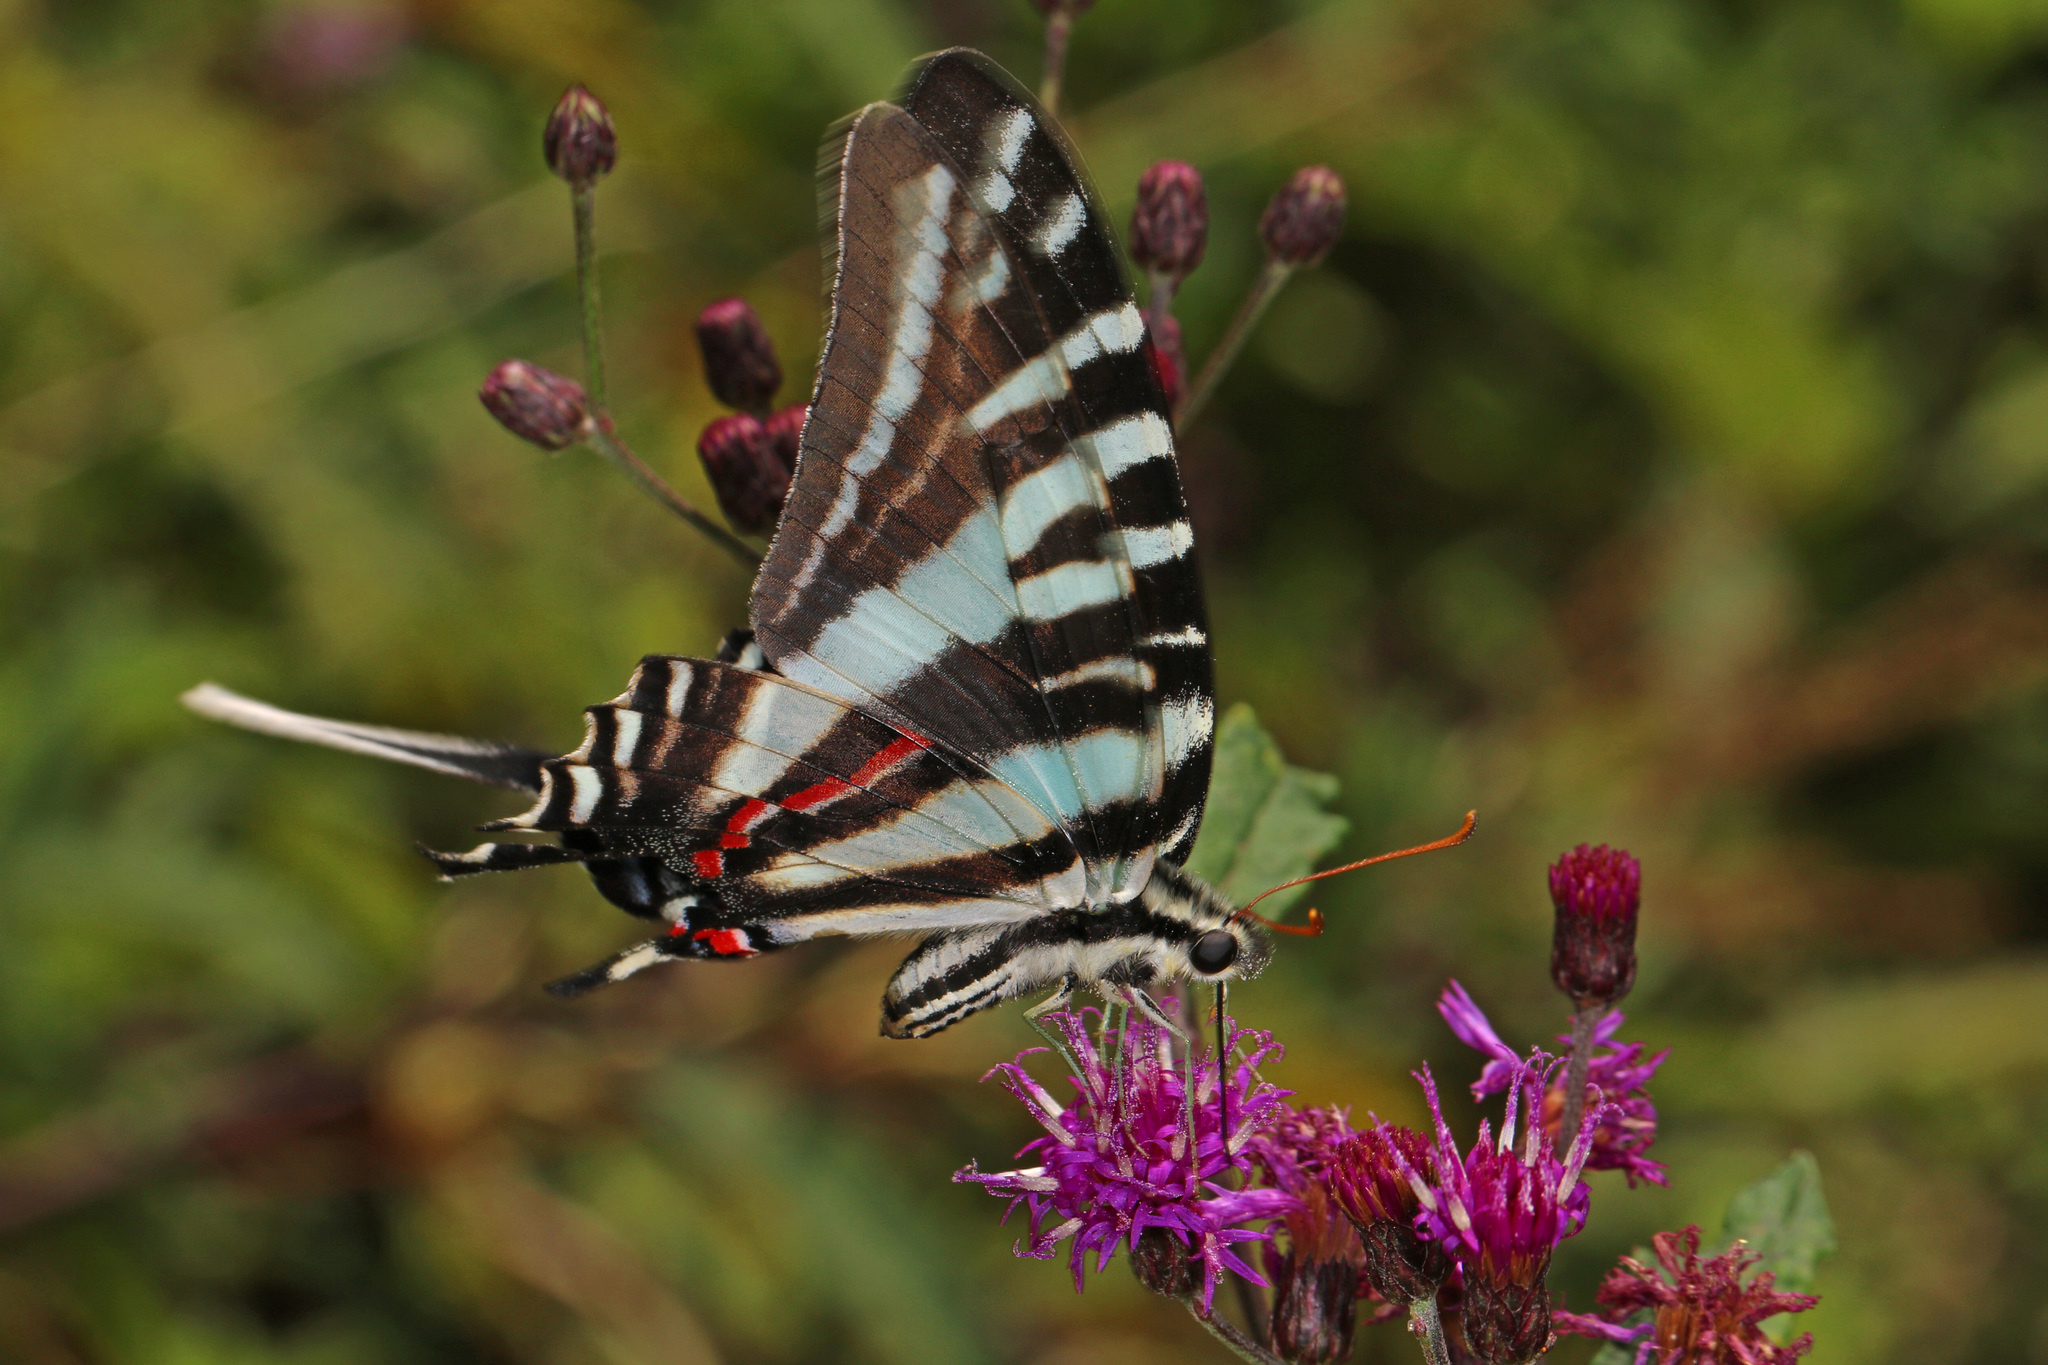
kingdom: Animalia
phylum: Arthropoda
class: Insecta
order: Lepidoptera
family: Papilionidae
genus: Protographium
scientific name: Protographium marcellus
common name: Zebra swallowtail
